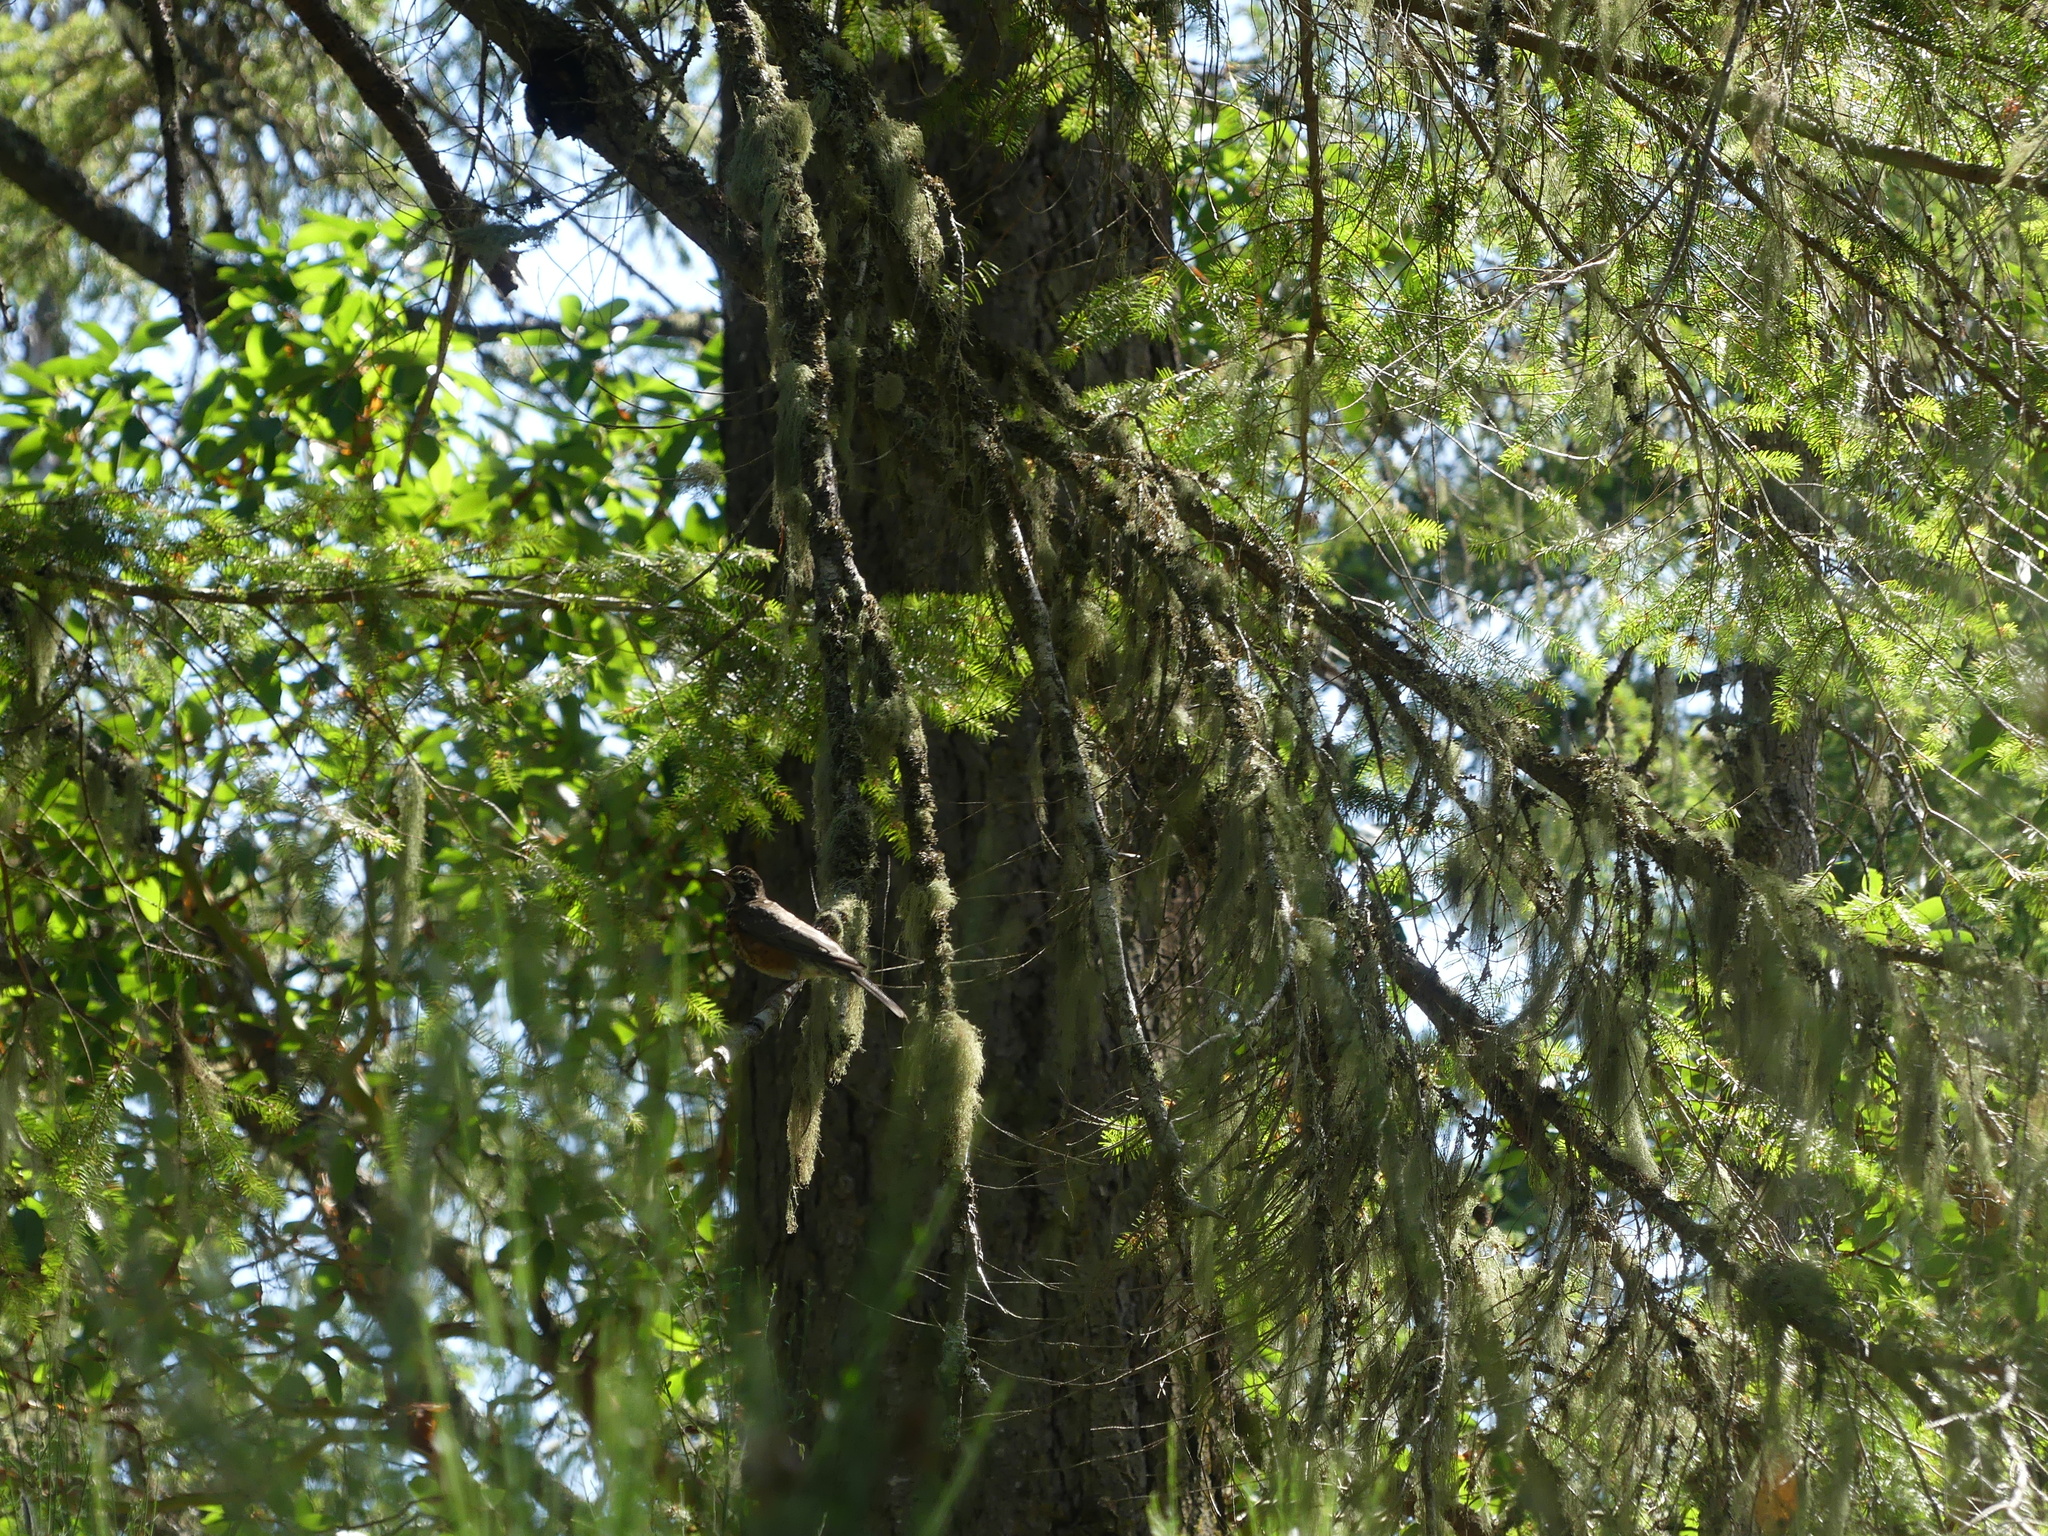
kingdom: Animalia
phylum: Chordata
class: Aves
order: Passeriformes
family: Turdidae
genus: Turdus
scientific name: Turdus migratorius
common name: American robin
